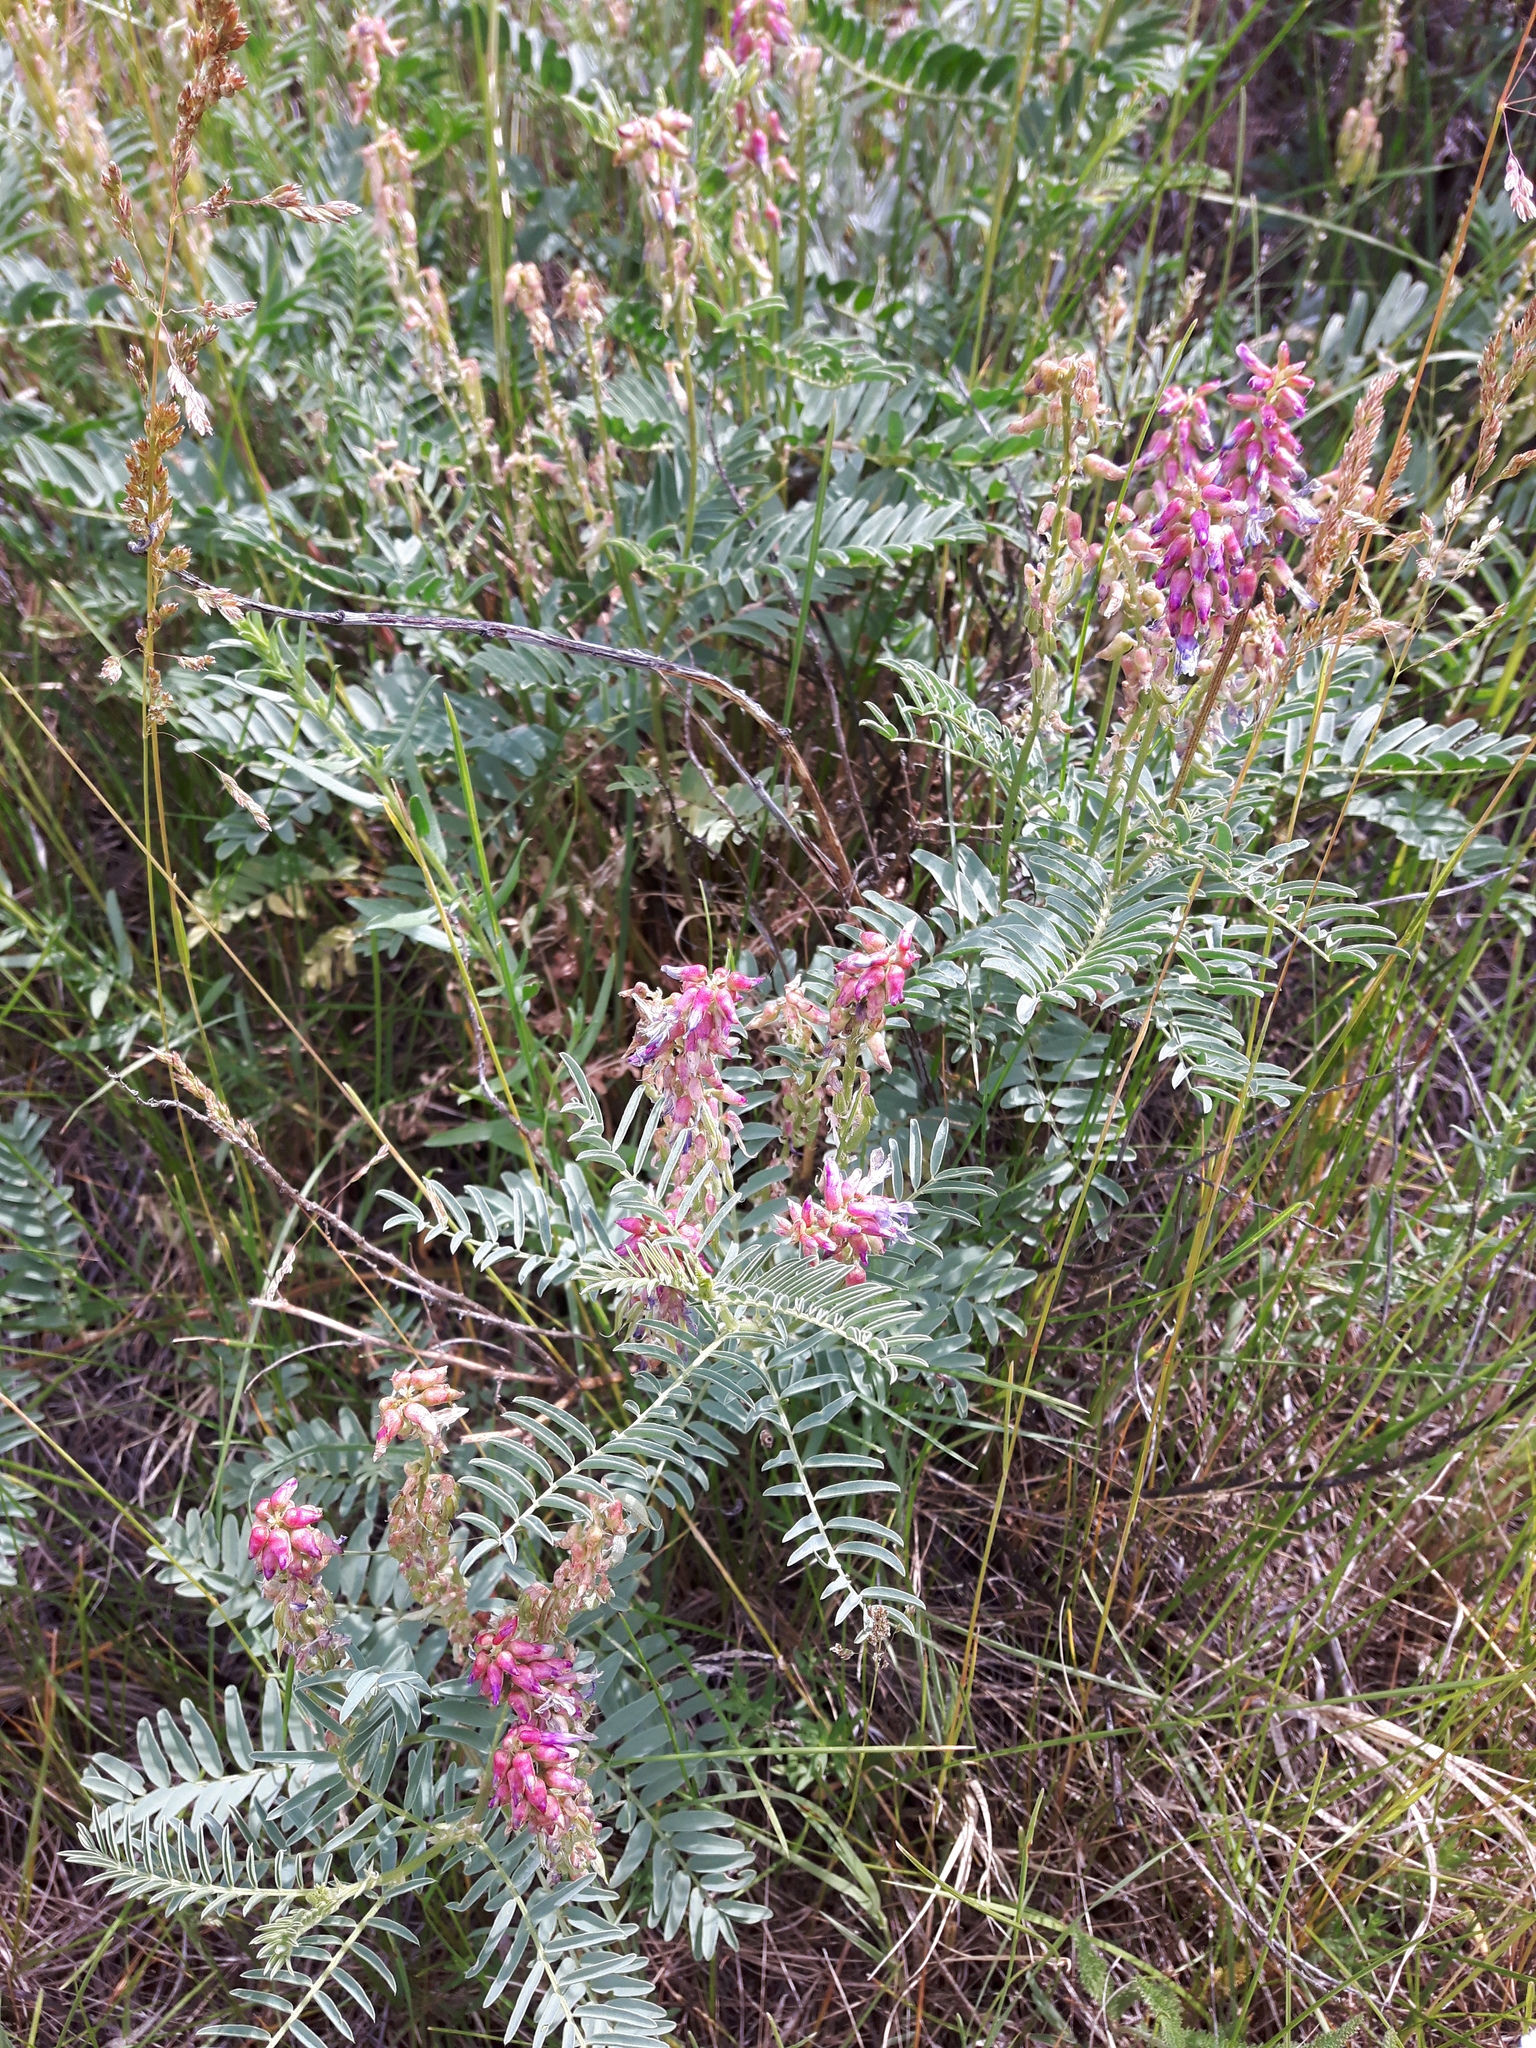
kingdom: Plantae
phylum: Tracheophyta
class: Magnoliopsida
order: Fabales
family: Fabaceae
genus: Astragalus
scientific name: Astragalus bisulcatus
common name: Two-groove milk-vetch
